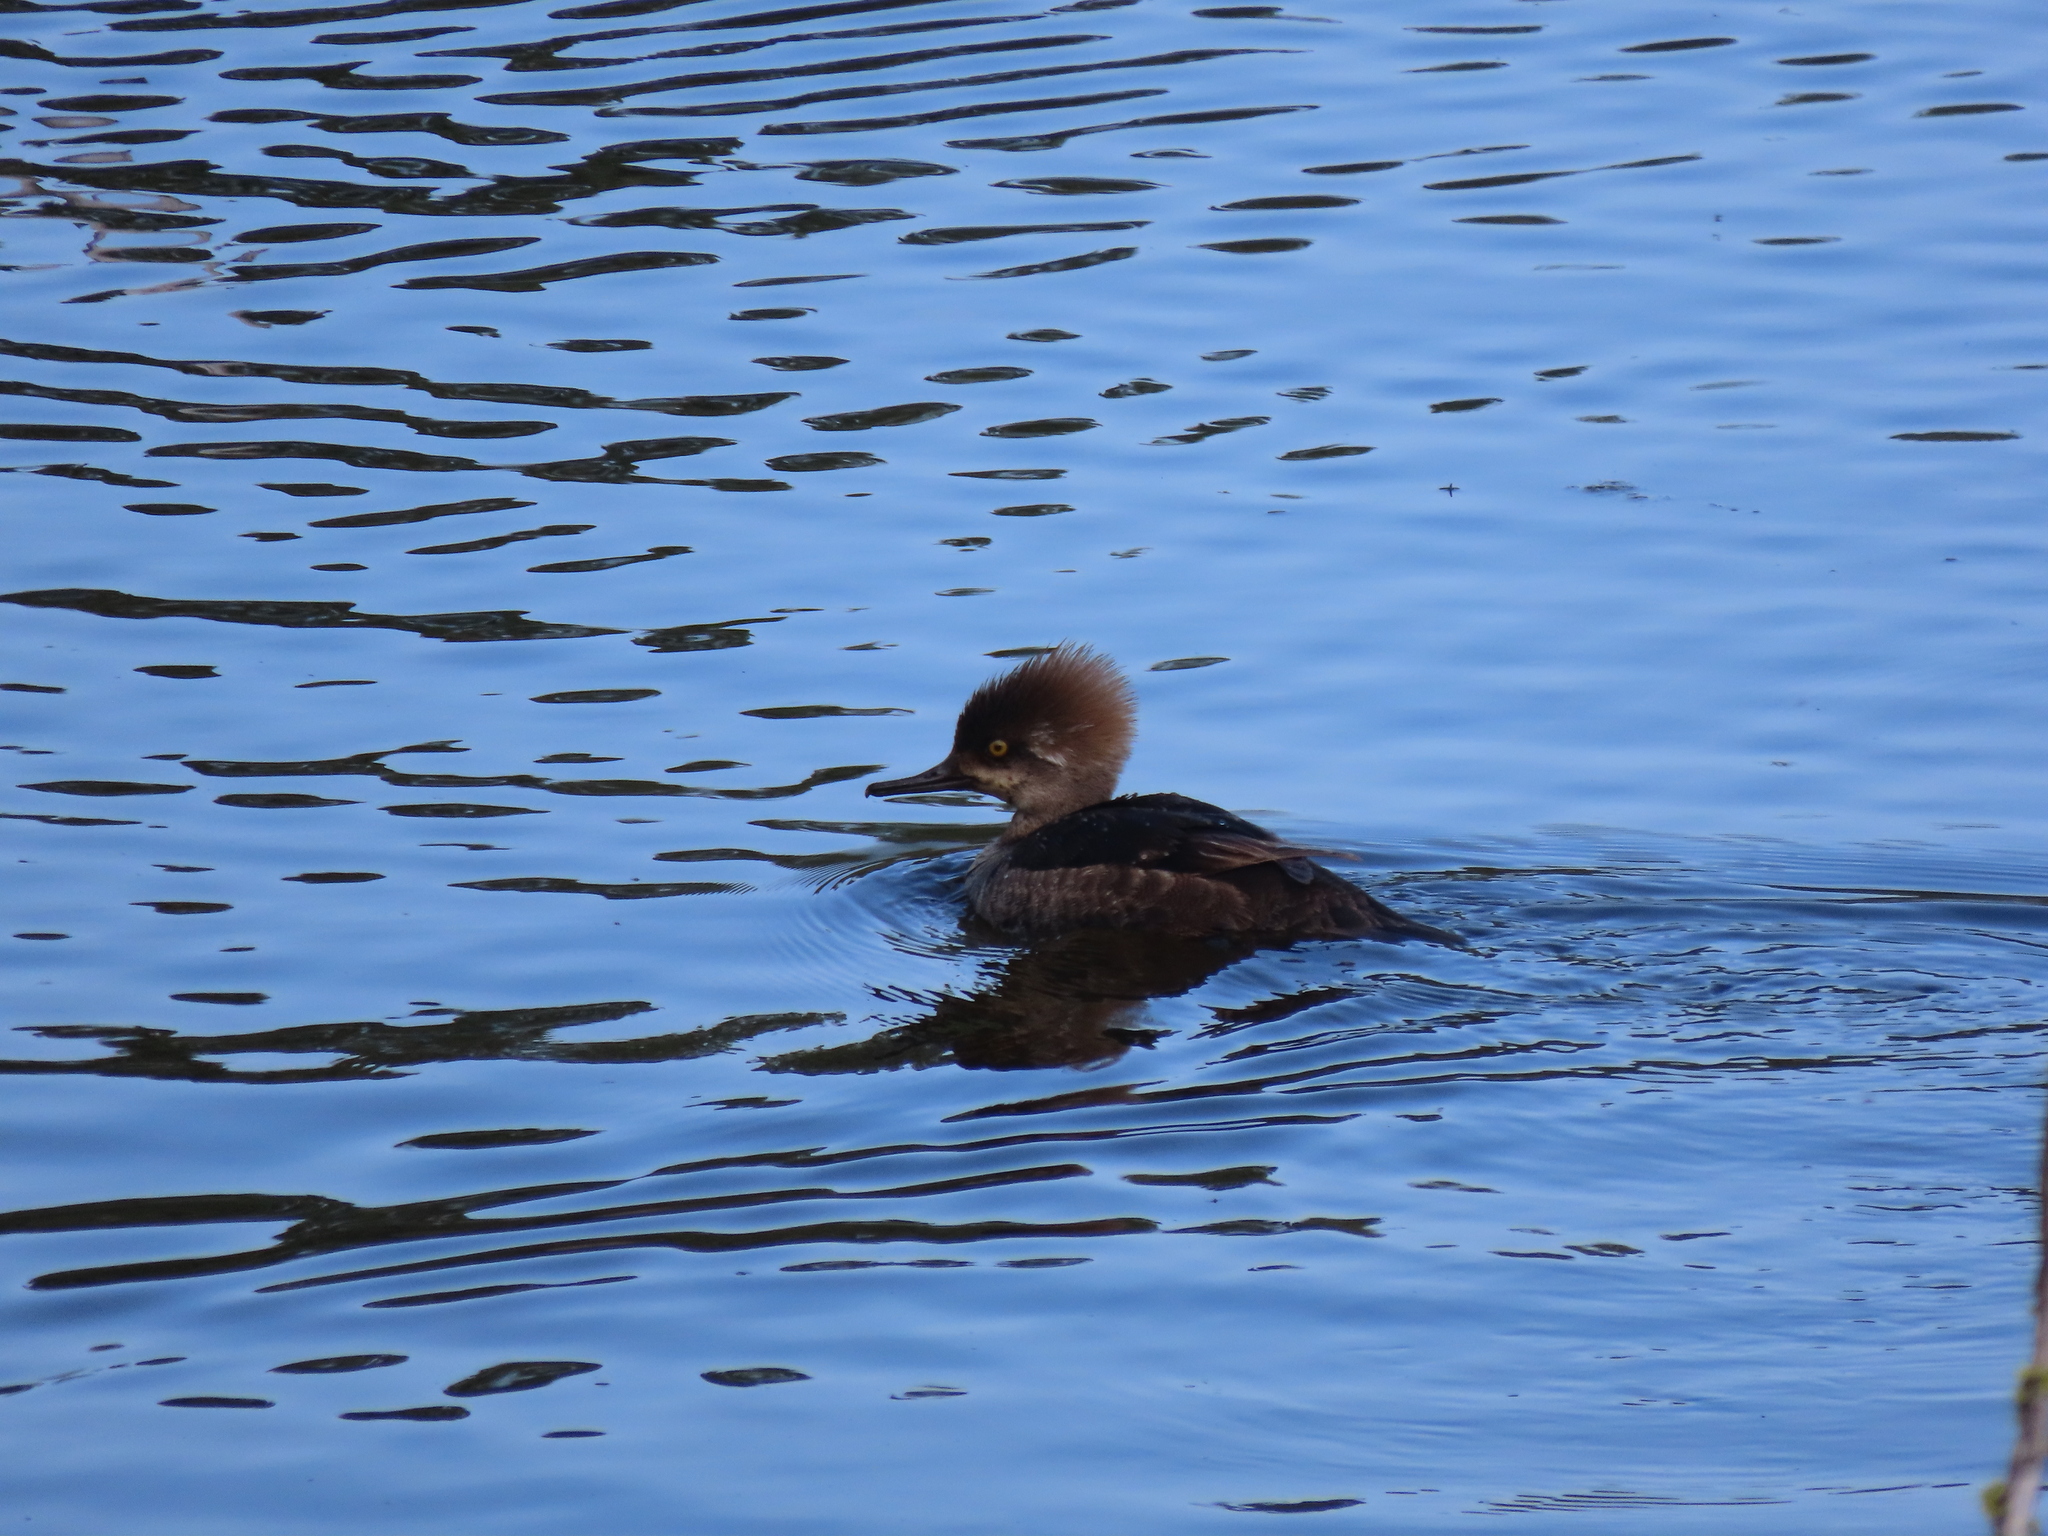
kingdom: Animalia
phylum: Chordata
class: Aves
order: Anseriformes
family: Anatidae
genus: Lophodytes
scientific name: Lophodytes cucullatus
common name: Hooded merganser
